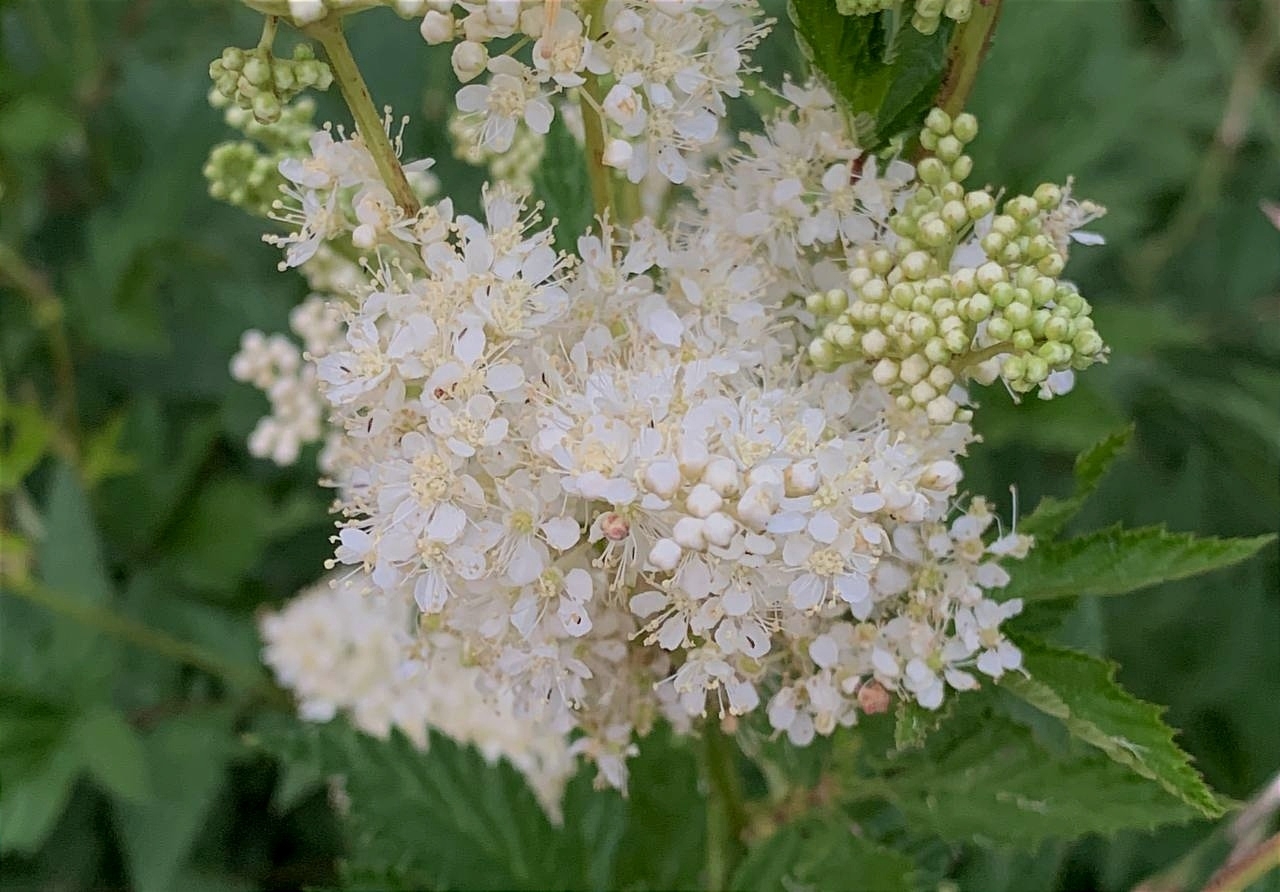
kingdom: Plantae
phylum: Tracheophyta
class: Magnoliopsida
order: Rosales
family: Rosaceae
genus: Filipendula
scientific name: Filipendula ulmaria
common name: Meadowsweet
